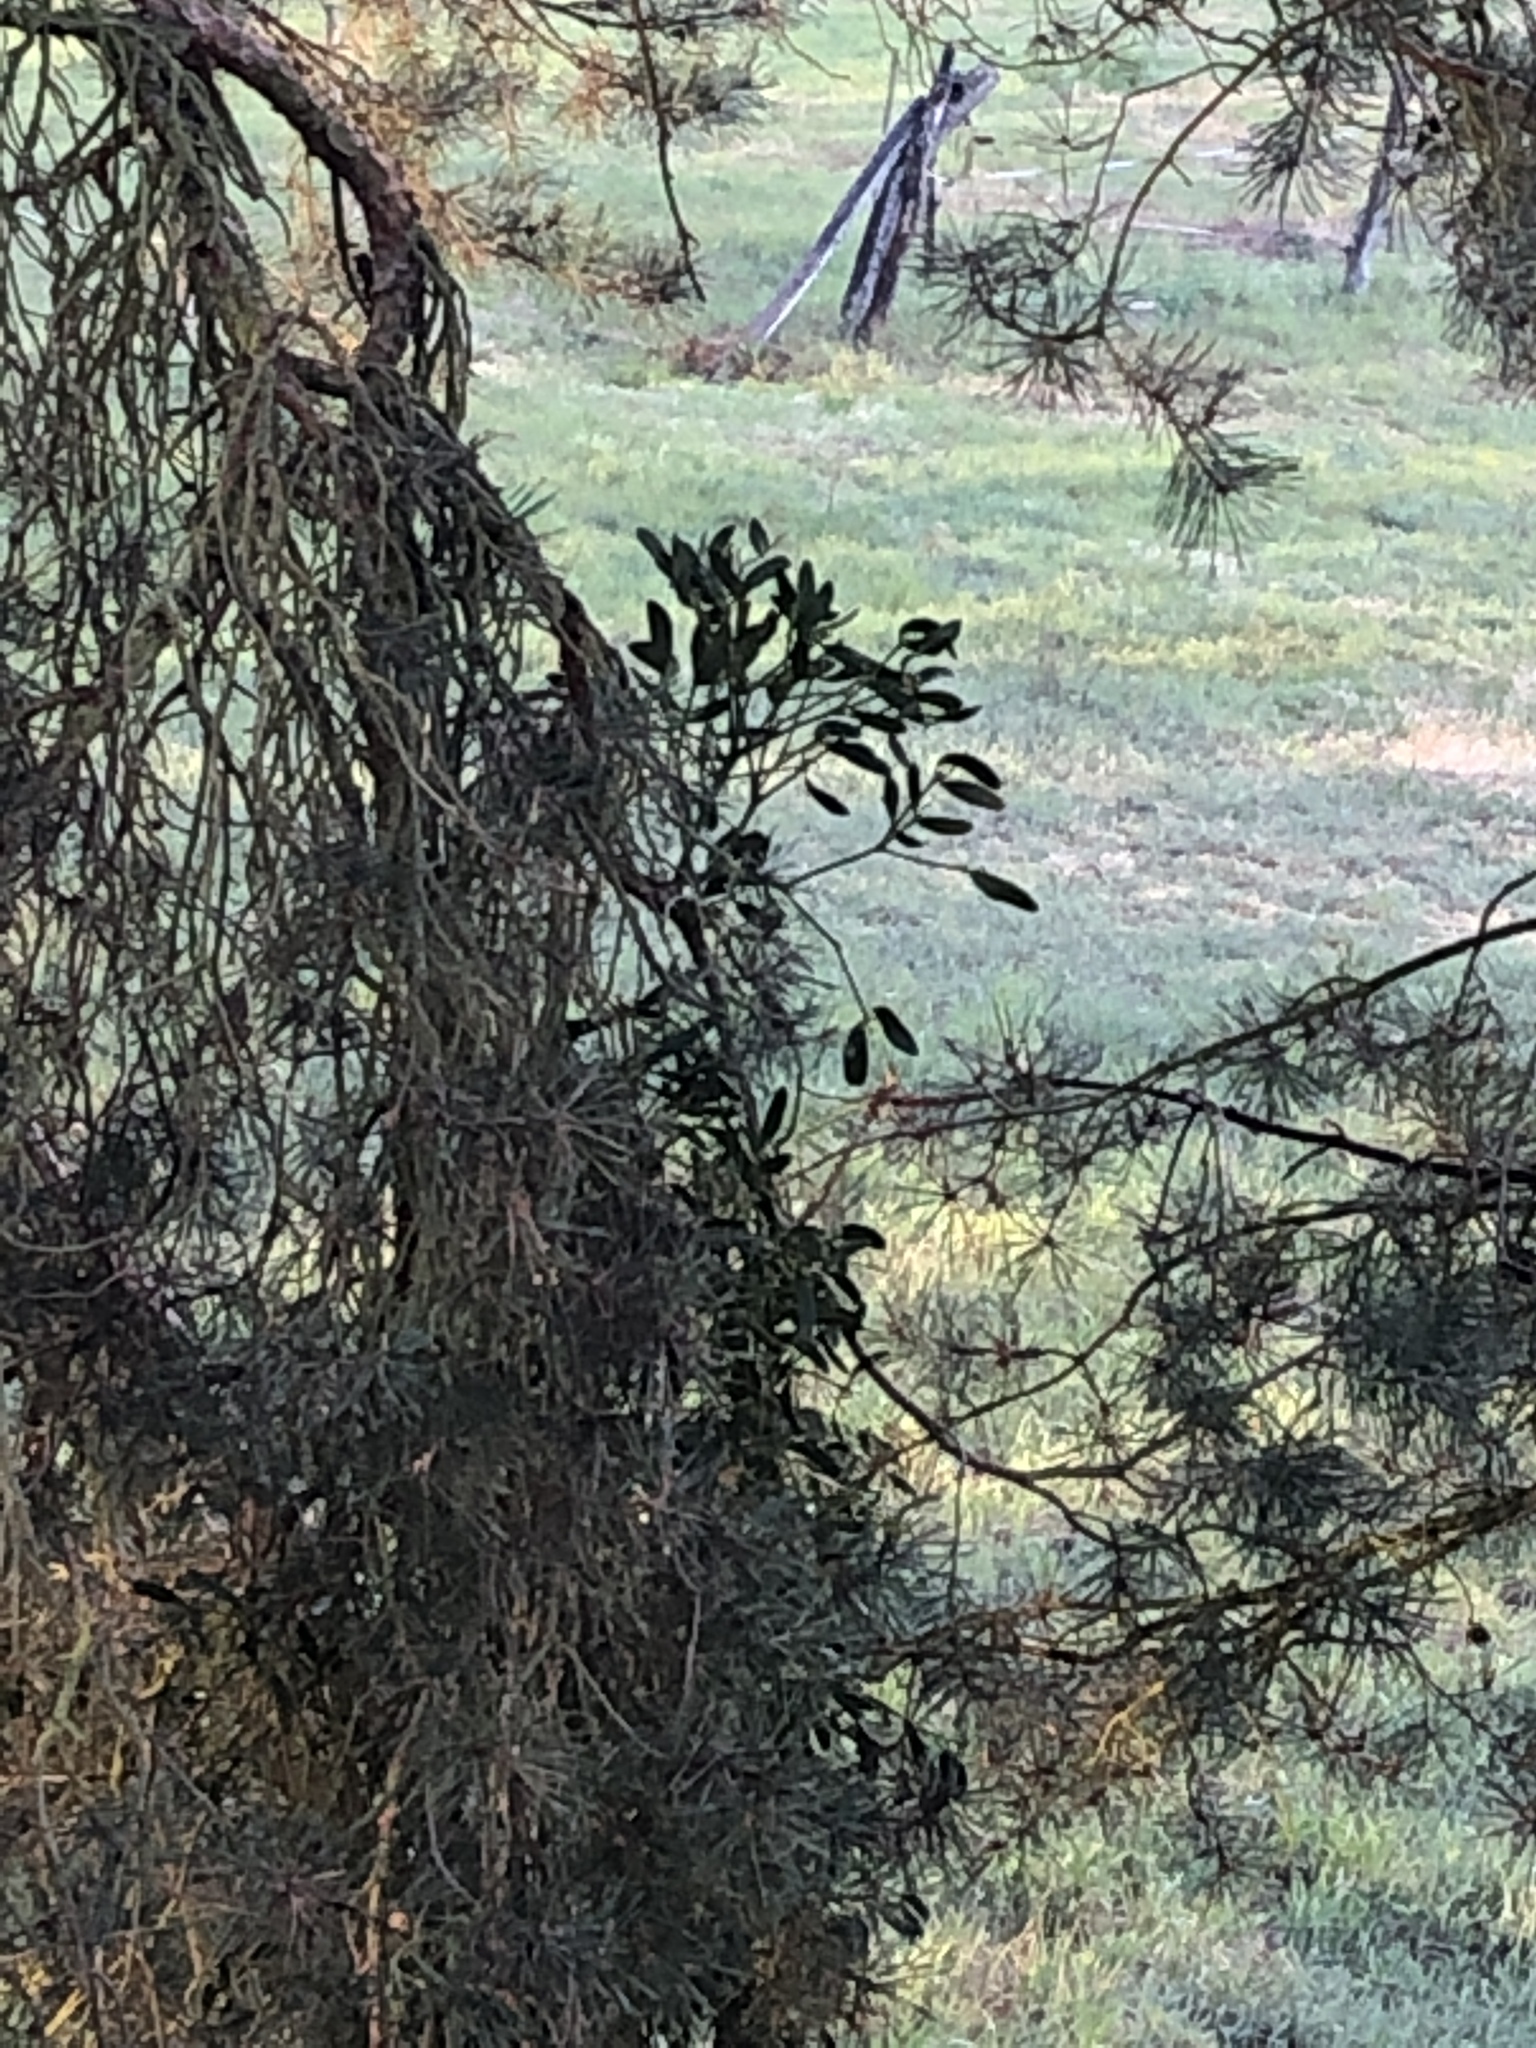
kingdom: Plantae
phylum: Tracheophyta
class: Magnoliopsida
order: Santalales
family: Viscaceae
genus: Viscum
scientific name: Viscum laxum
